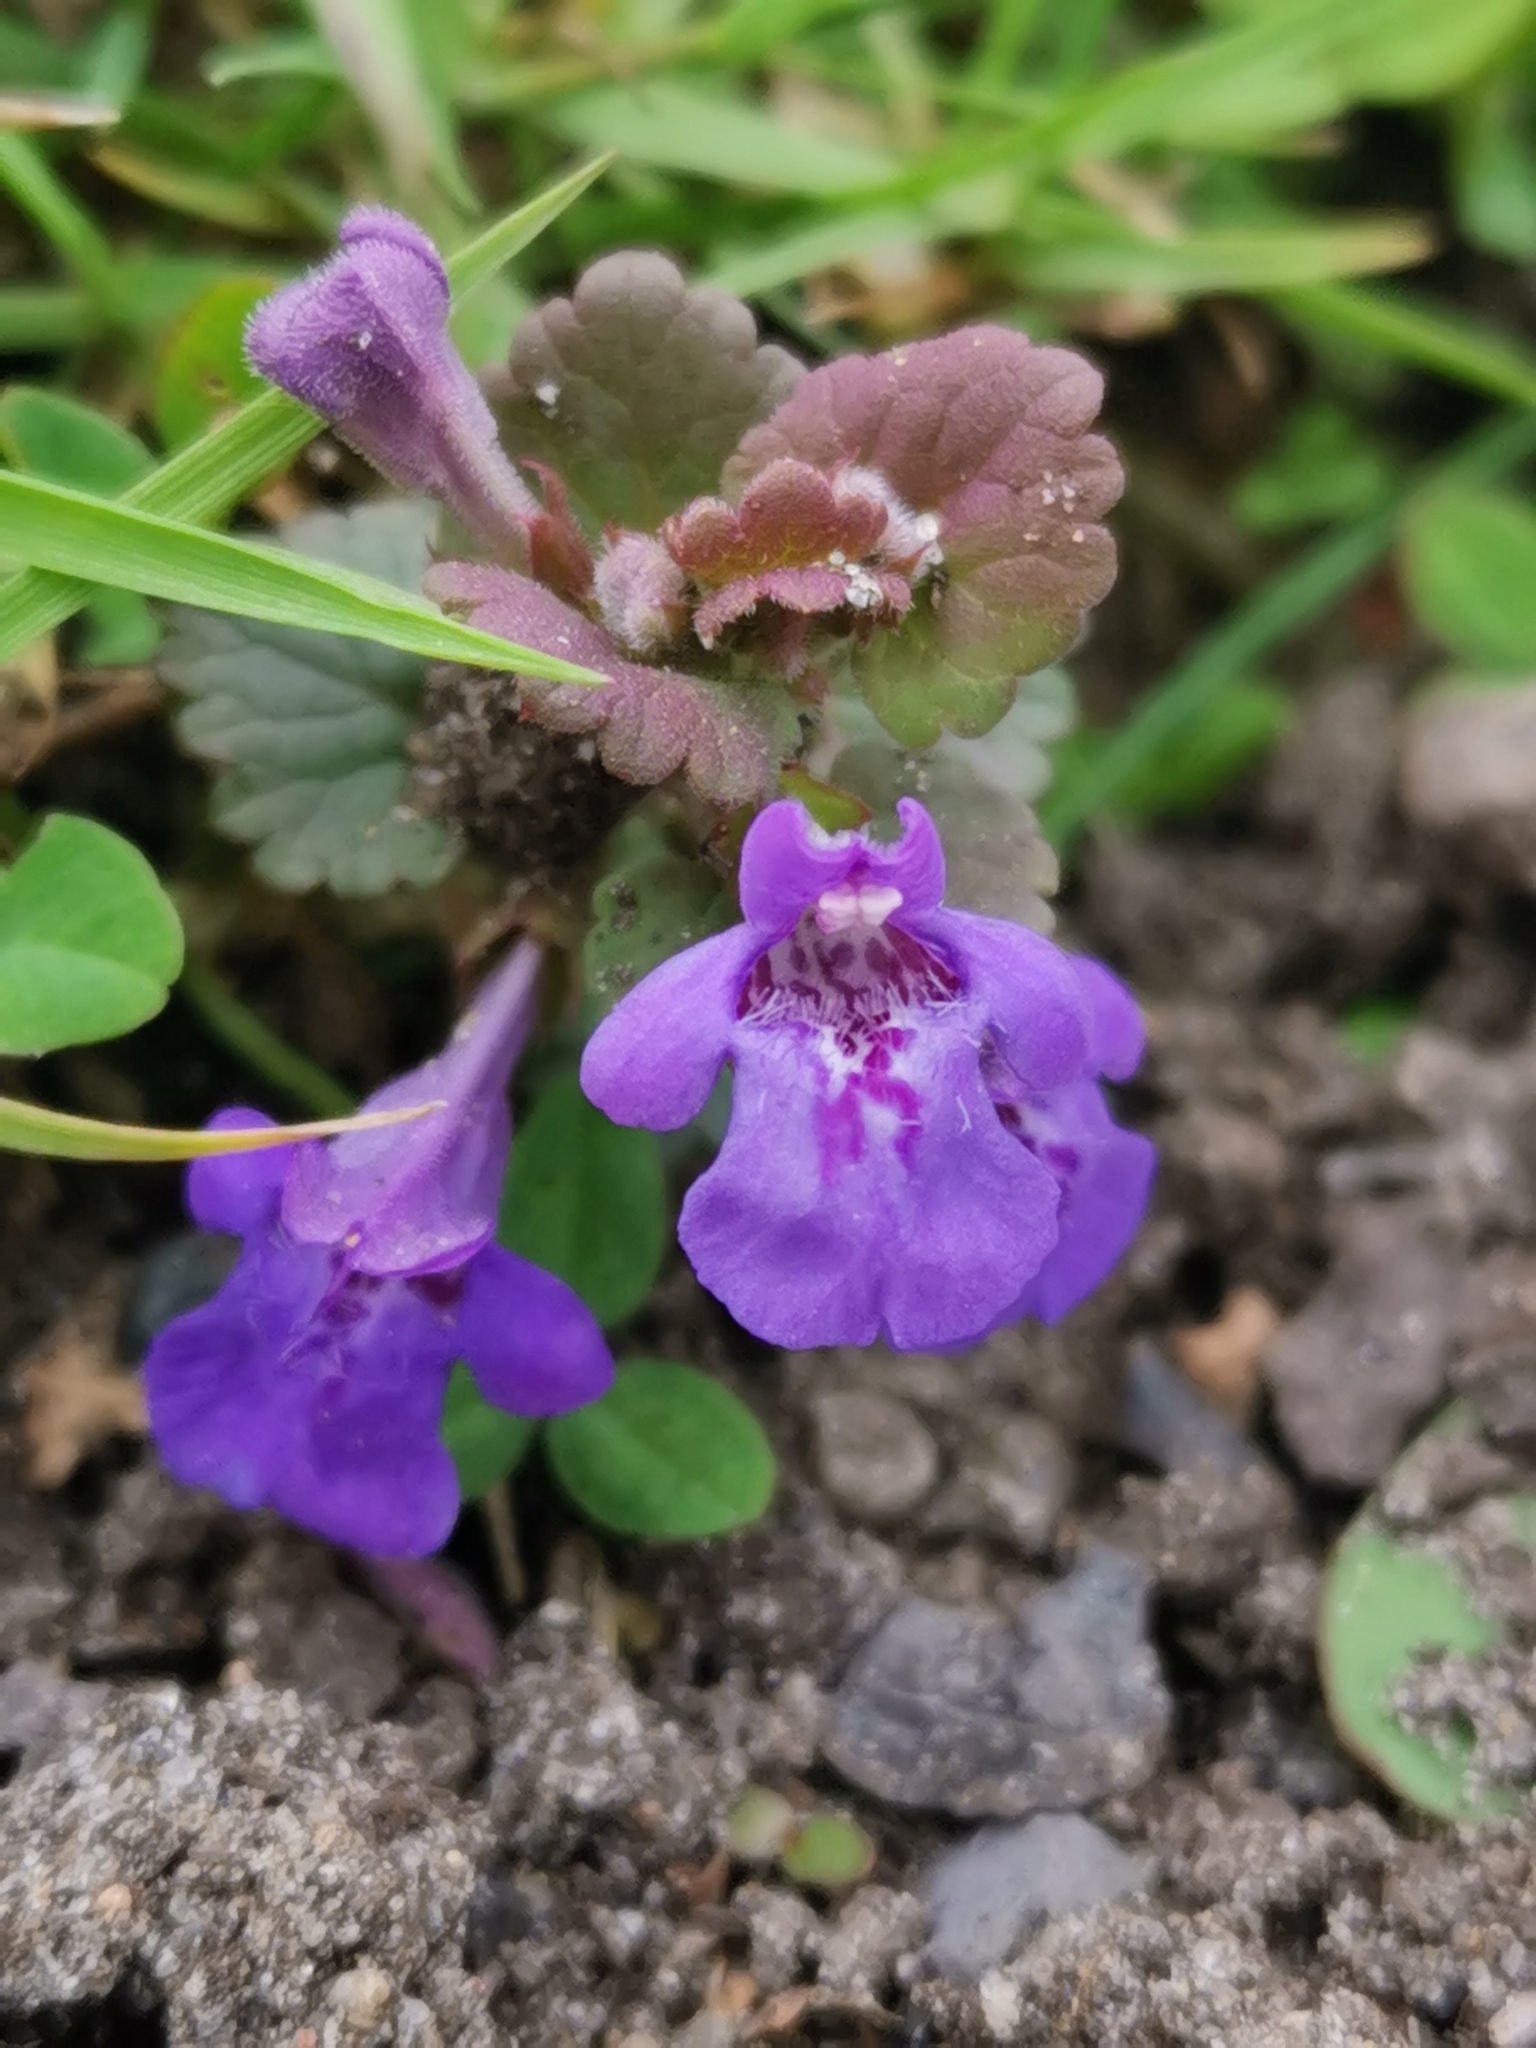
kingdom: Plantae
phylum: Tracheophyta
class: Magnoliopsida
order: Lamiales
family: Lamiaceae
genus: Glechoma
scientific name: Glechoma hederacea
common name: Ground ivy
